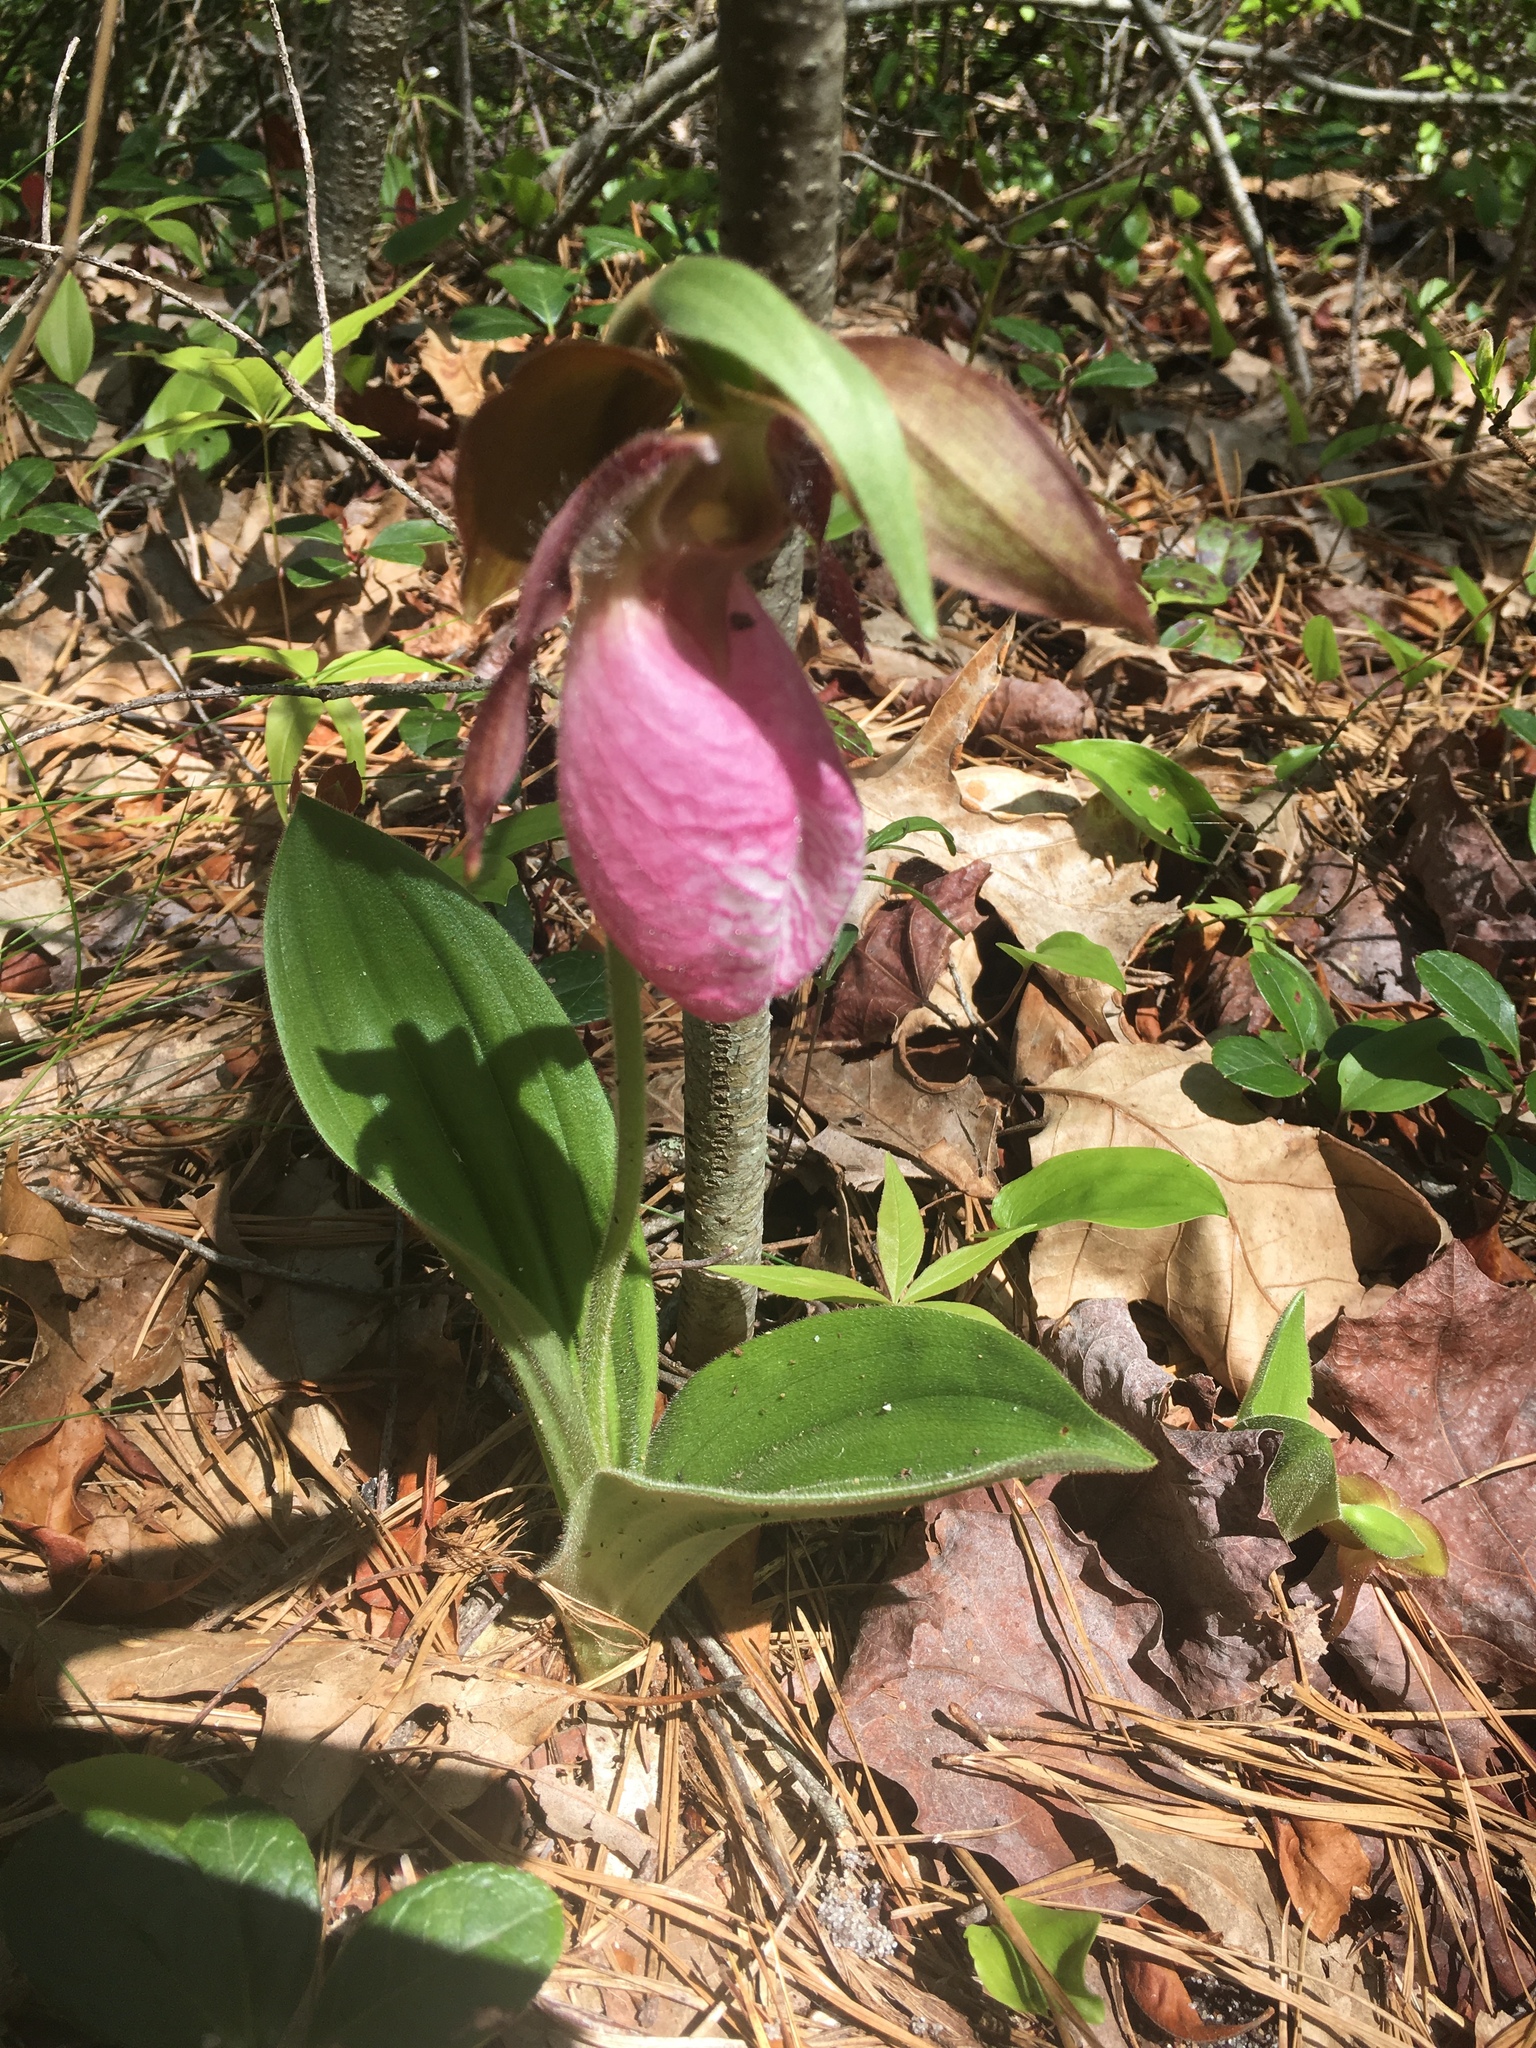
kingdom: Plantae
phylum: Tracheophyta
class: Liliopsida
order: Asparagales
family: Orchidaceae
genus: Cypripedium
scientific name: Cypripedium acaule
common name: Pink lady's-slipper
